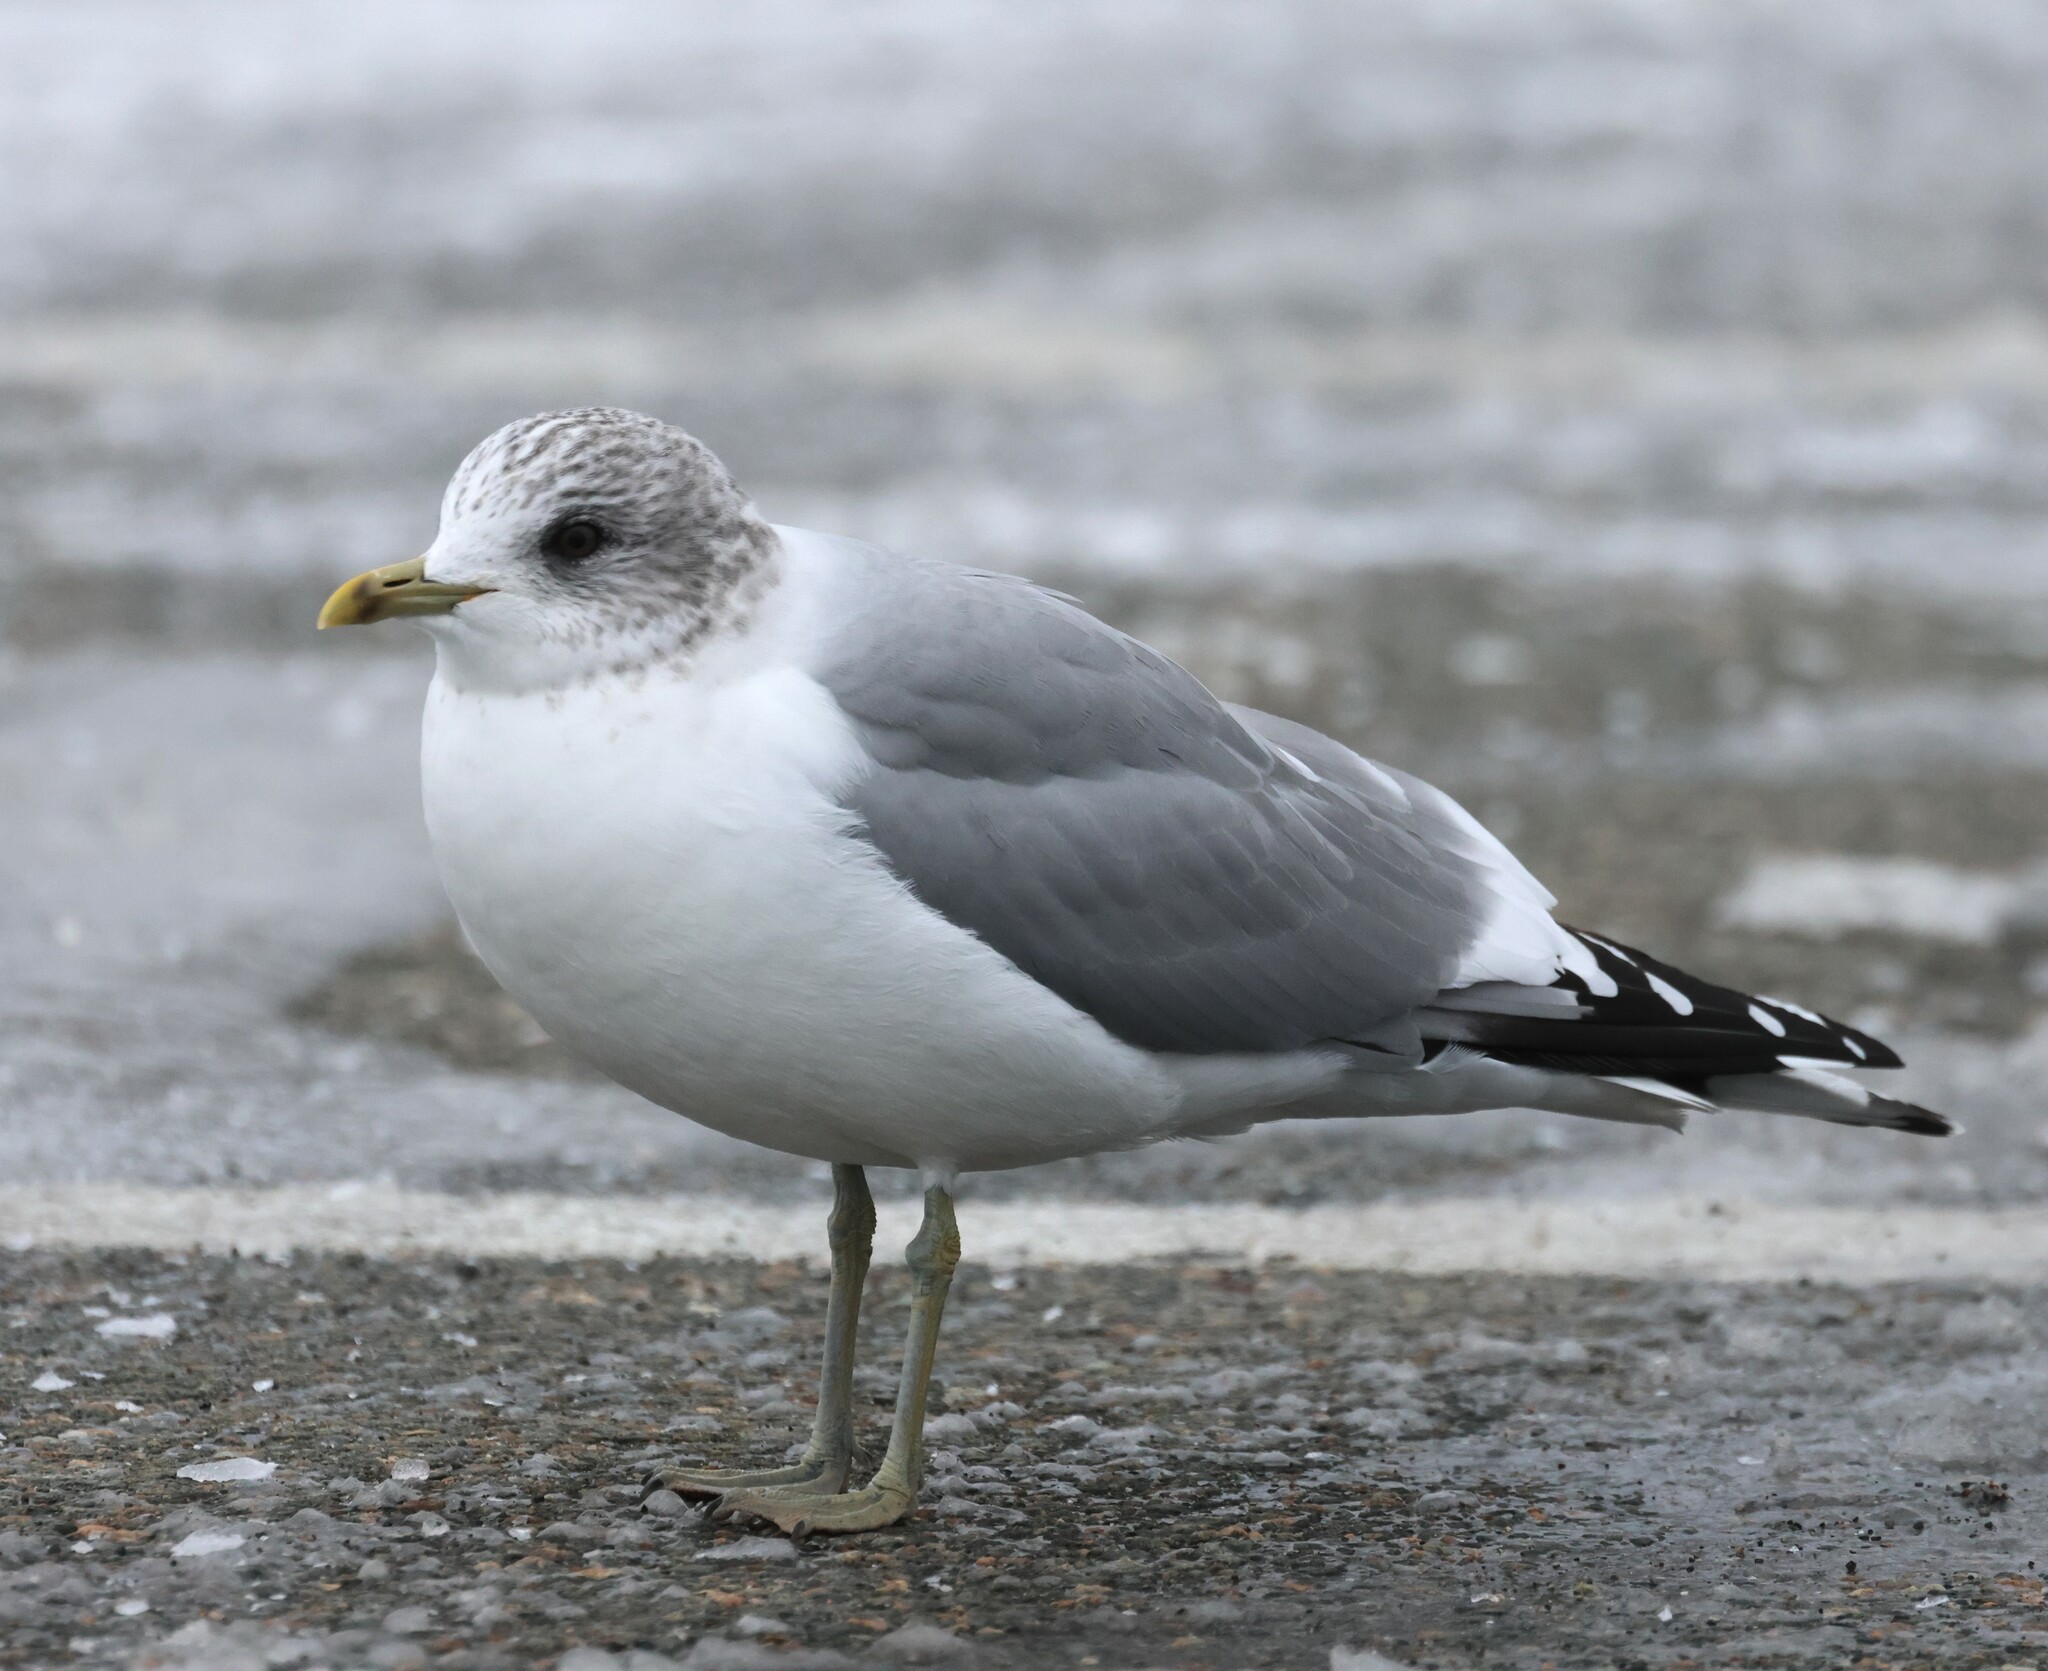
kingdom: Animalia
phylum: Chordata
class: Aves
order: Charadriiformes
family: Laridae
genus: Larus
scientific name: Larus canus
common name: Mew gull
